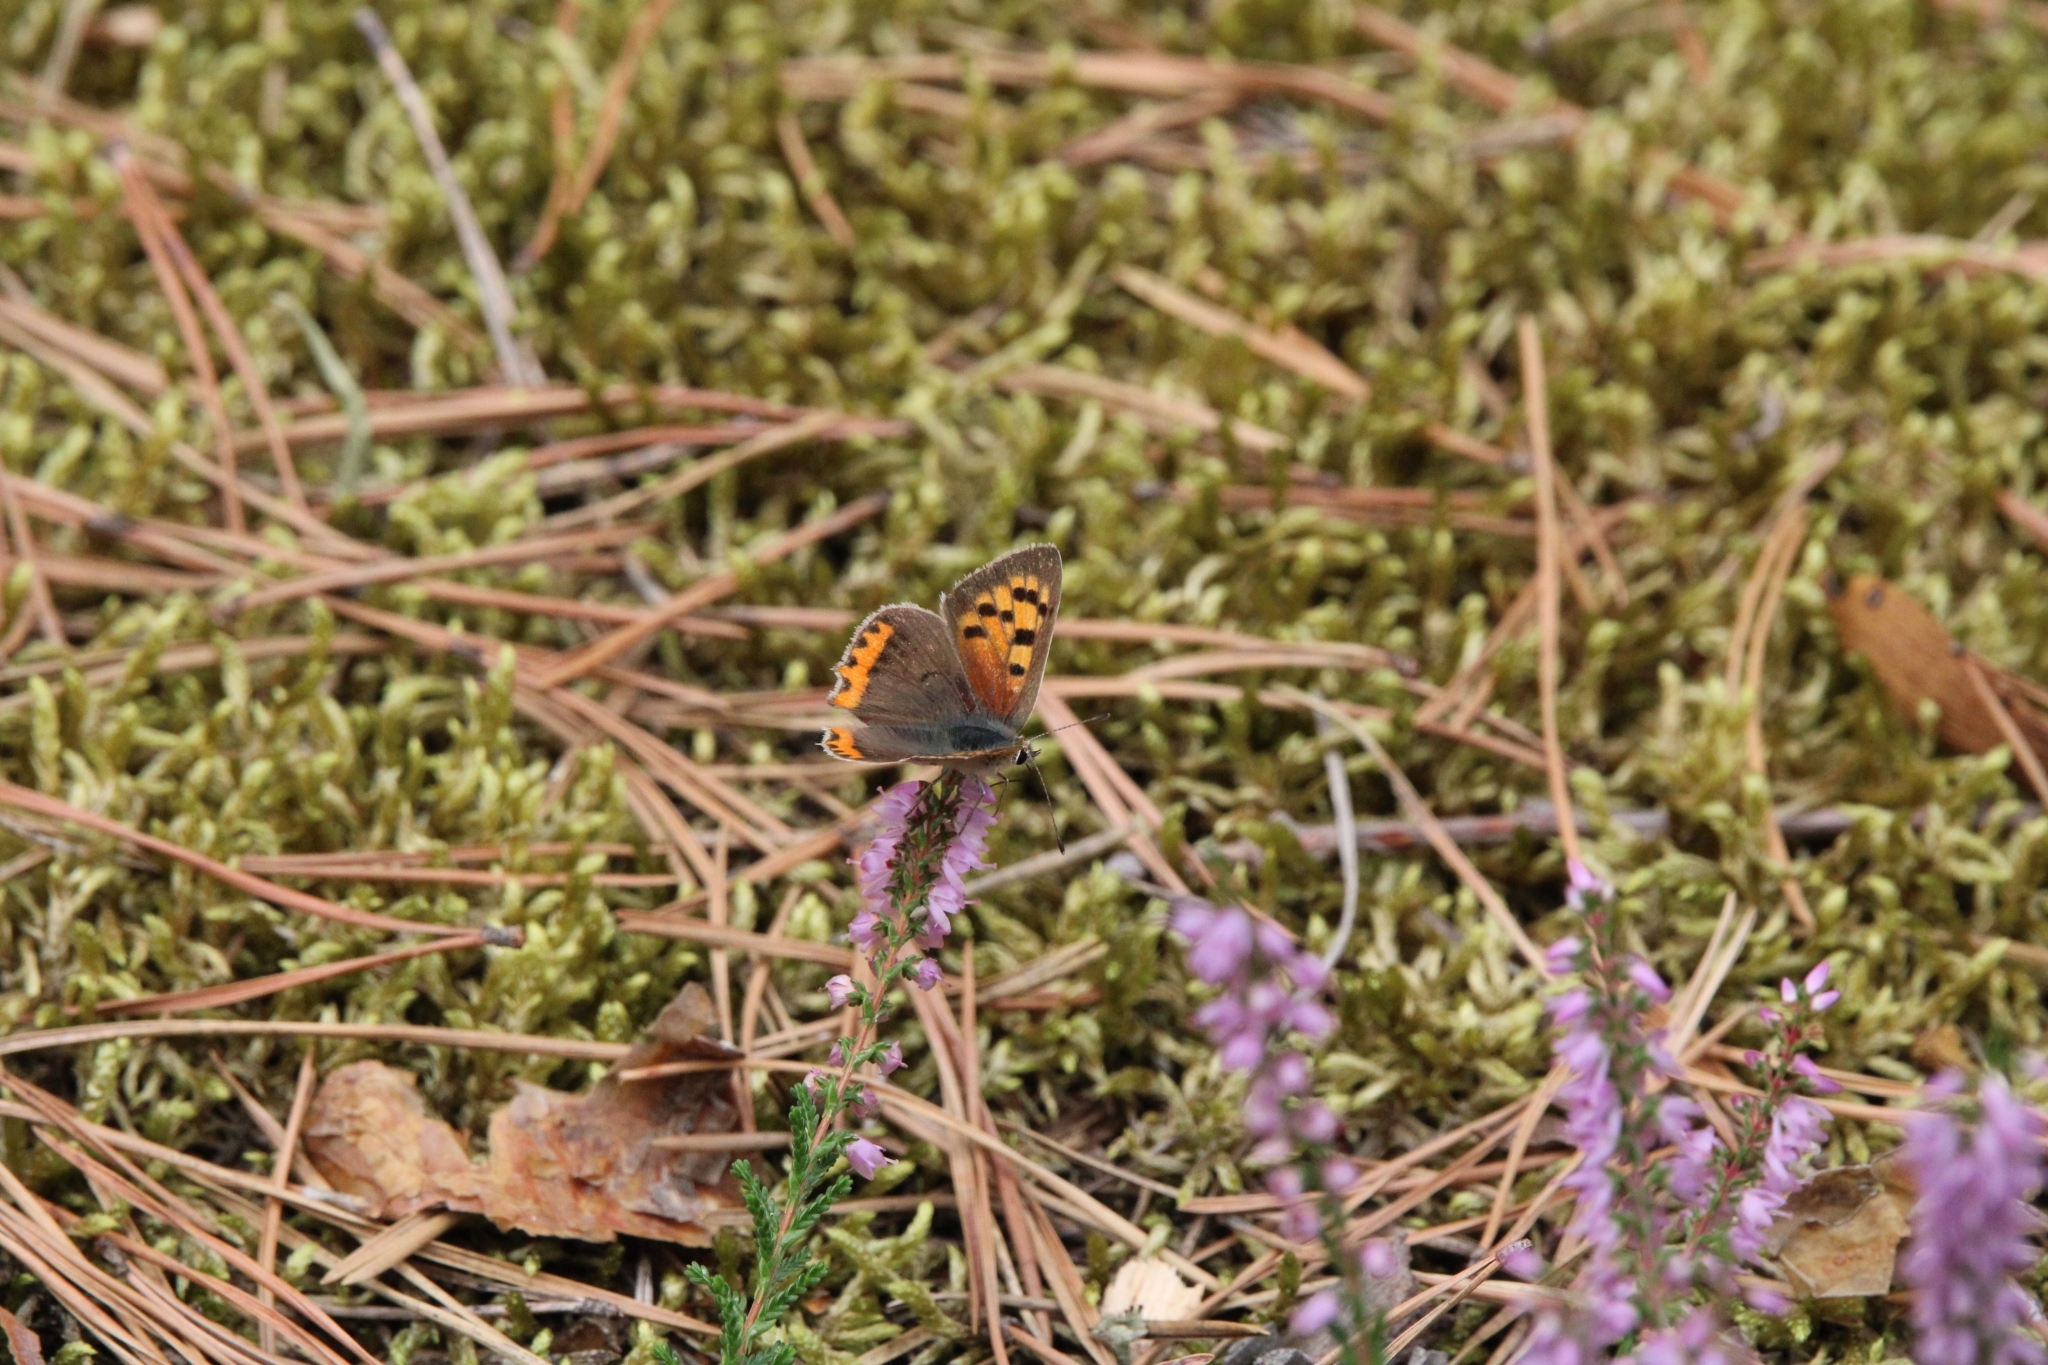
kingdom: Animalia
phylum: Arthropoda
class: Insecta
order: Lepidoptera
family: Lycaenidae
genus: Lycaena
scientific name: Lycaena phlaeas
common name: Small copper
